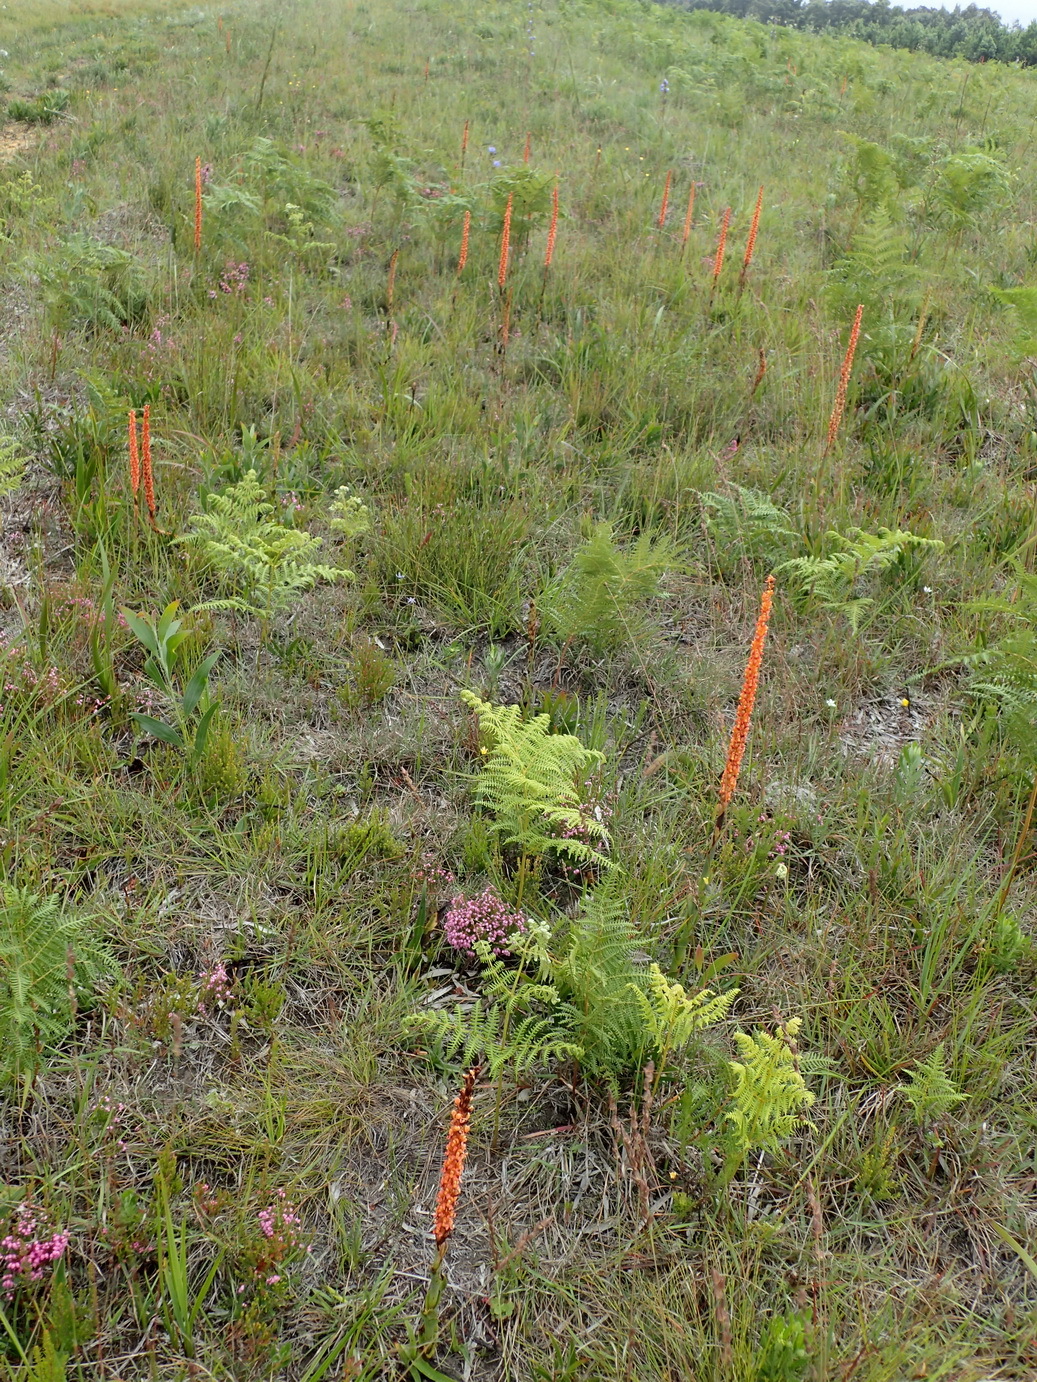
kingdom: Plantae
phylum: Tracheophyta
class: Liliopsida
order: Asparagales
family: Orchidaceae
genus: Disa
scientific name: Disa chrysostachya
